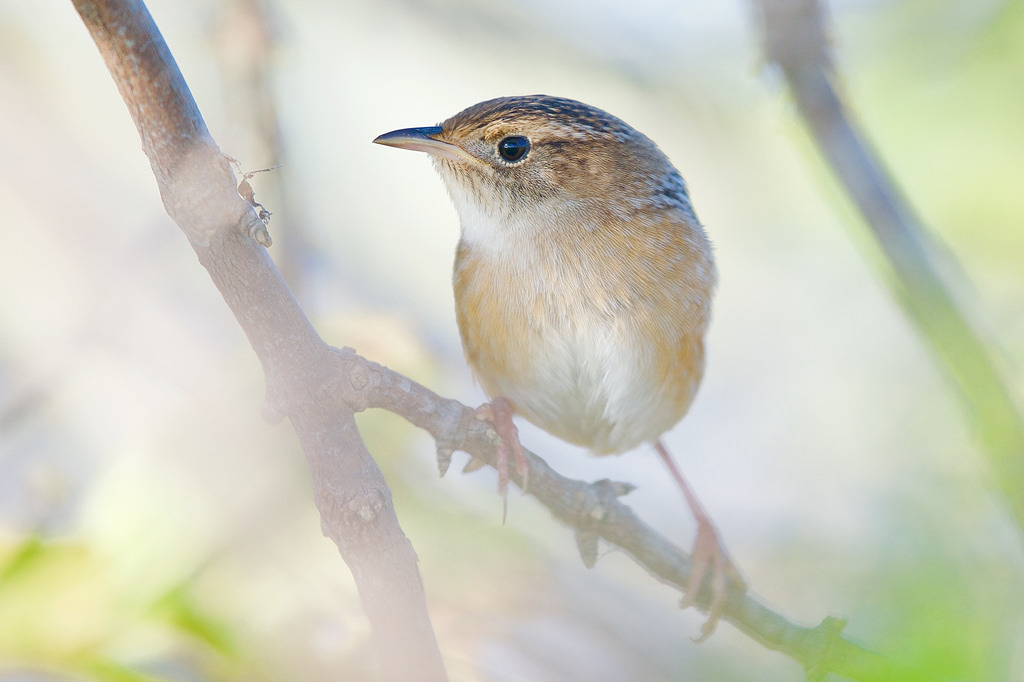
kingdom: Animalia
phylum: Chordata
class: Aves
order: Passeriformes
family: Troglodytidae
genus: Cistothorus
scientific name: Cistothorus platensis
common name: Sedge wren
